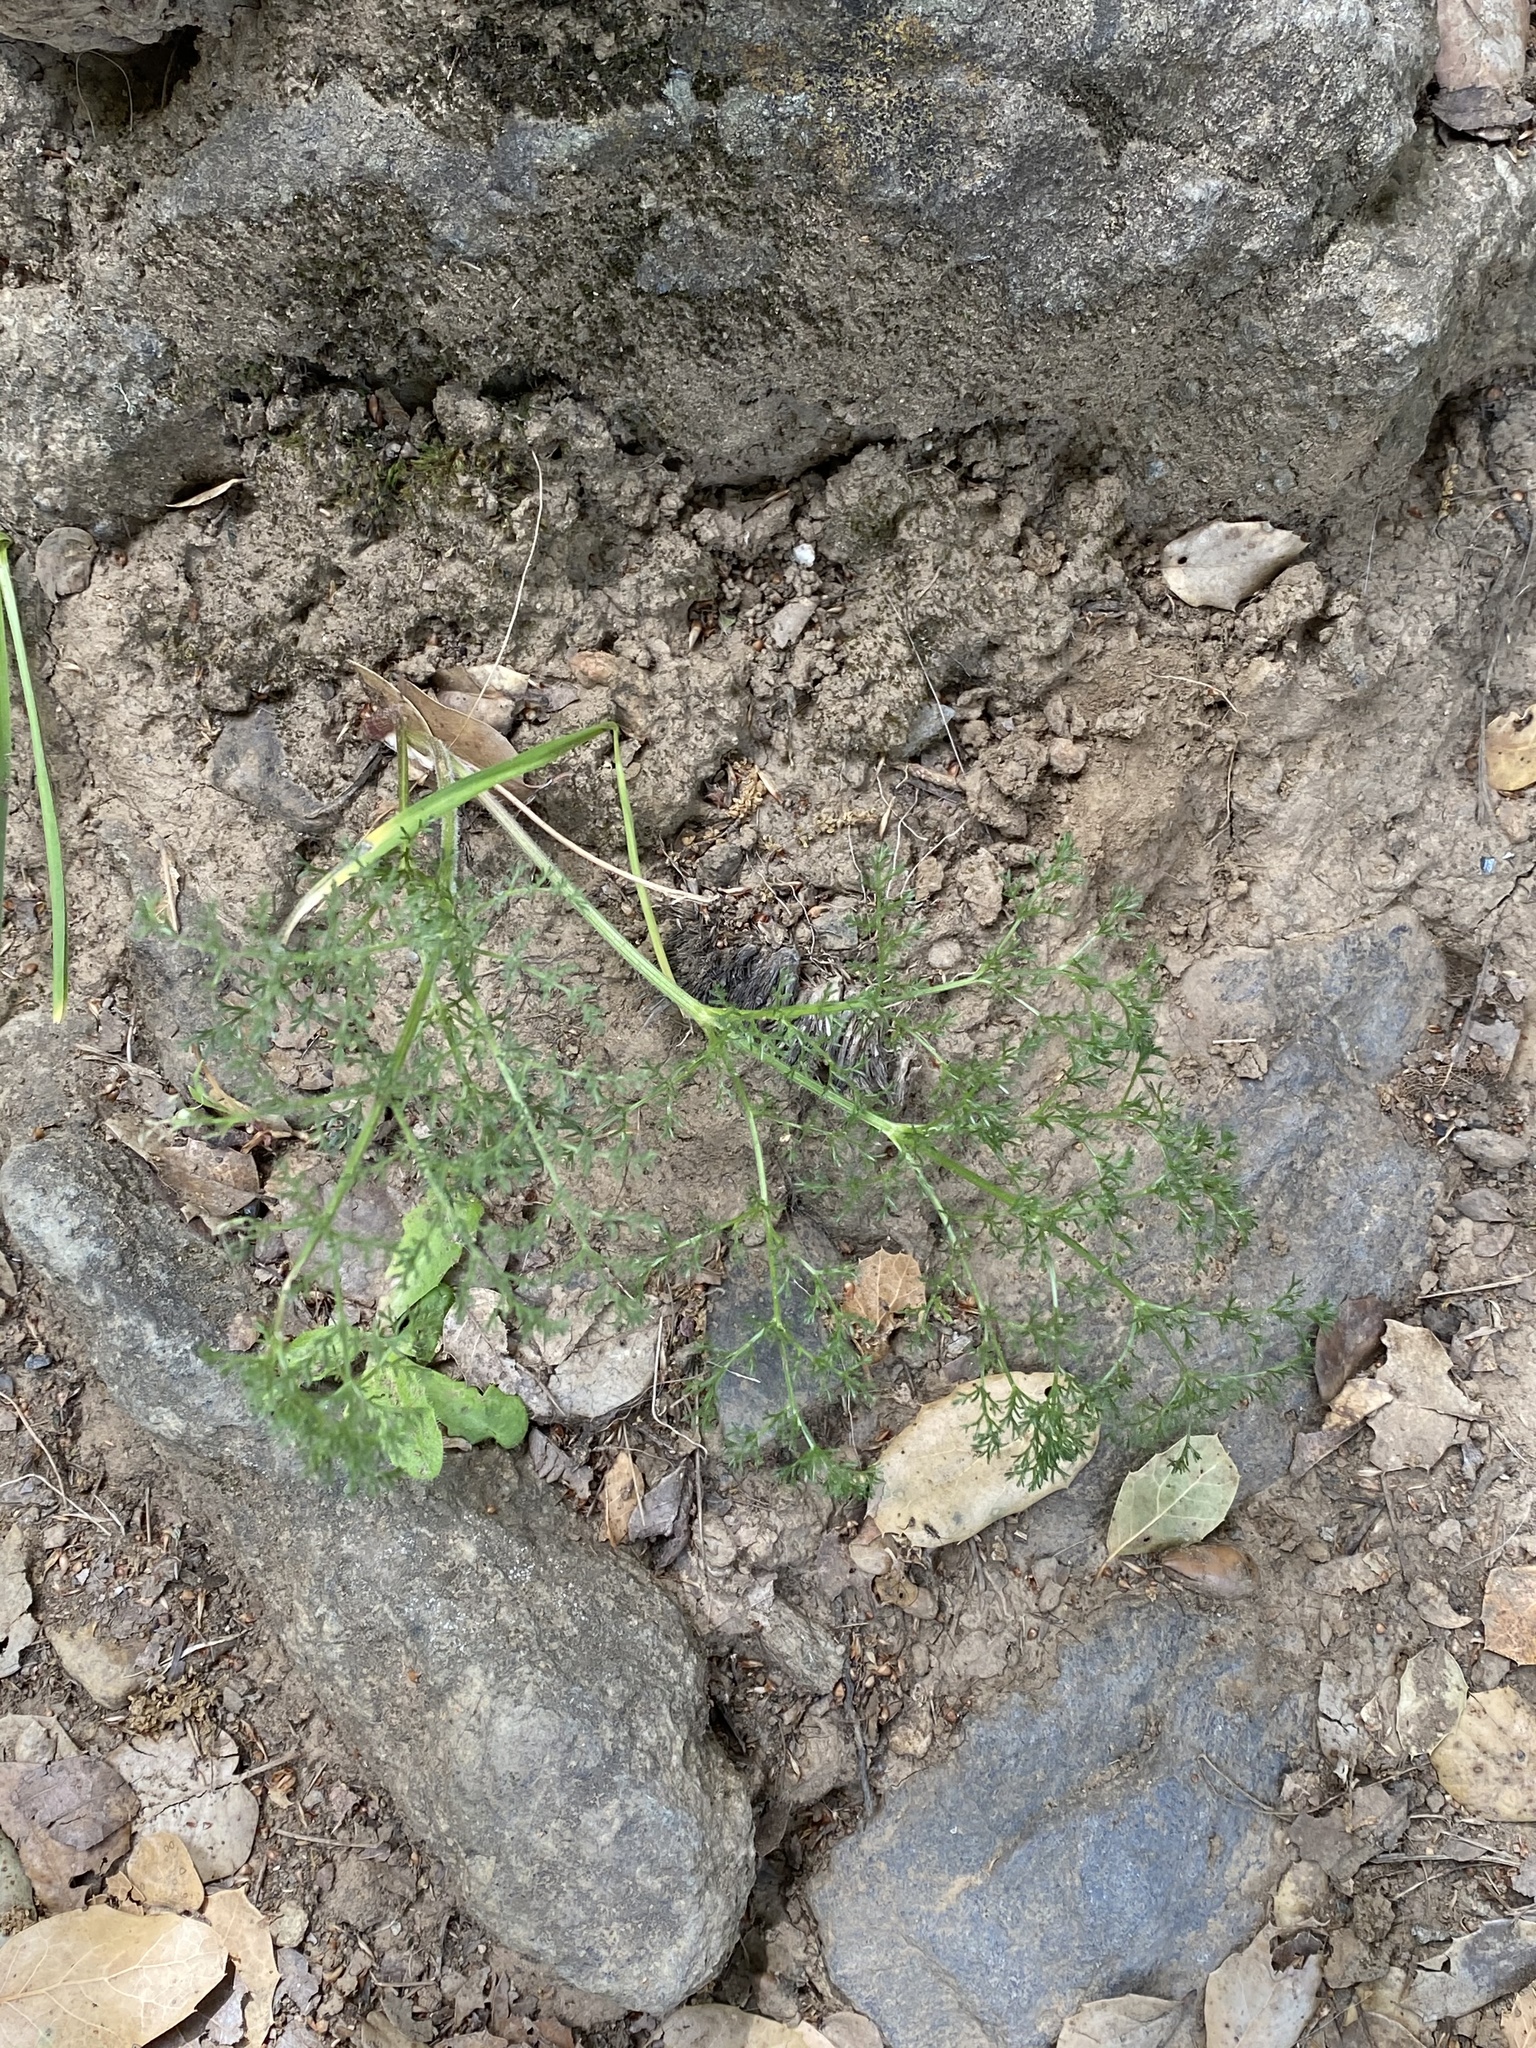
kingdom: Plantae
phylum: Tracheophyta
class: Magnoliopsida
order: Apiales
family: Apiaceae
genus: Foeniculum
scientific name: Foeniculum vulgare
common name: Fennel
